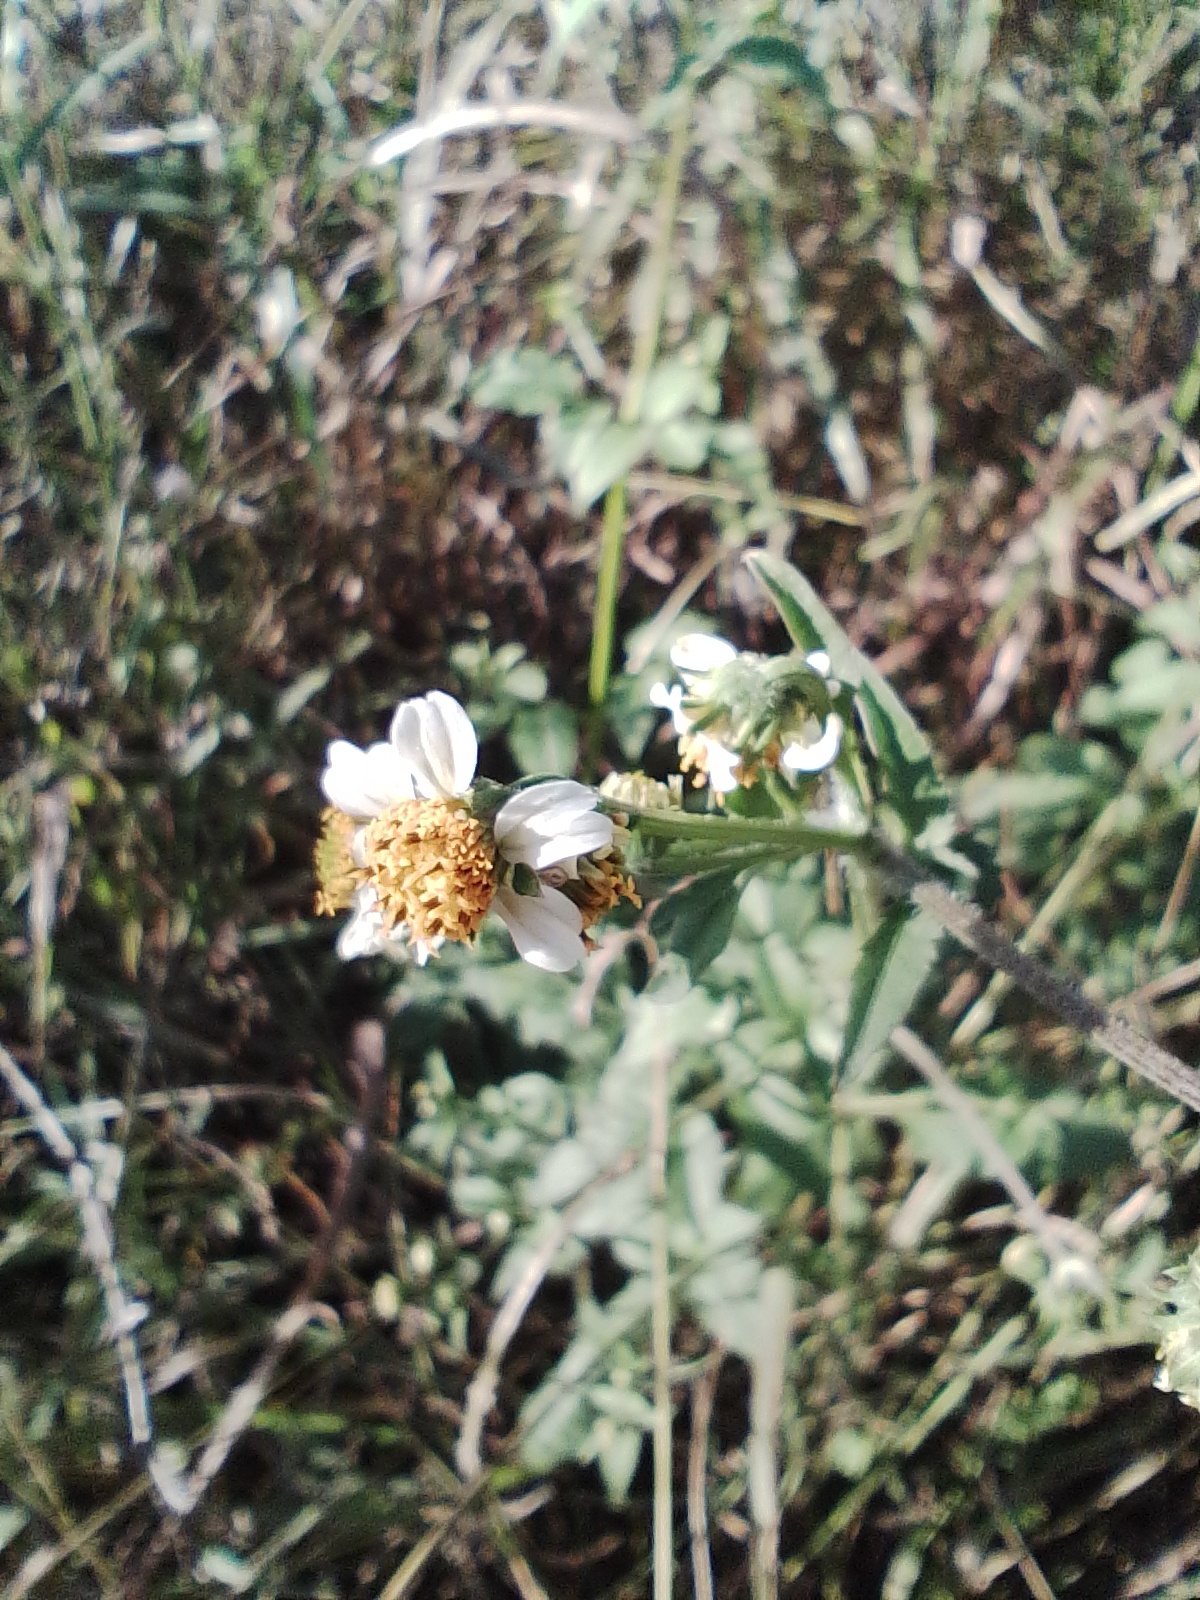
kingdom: Plantae
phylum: Tracheophyta
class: Magnoliopsida
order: Asterales
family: Asteraceae
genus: Bidens
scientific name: Bidens pilosa
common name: Black-jack
